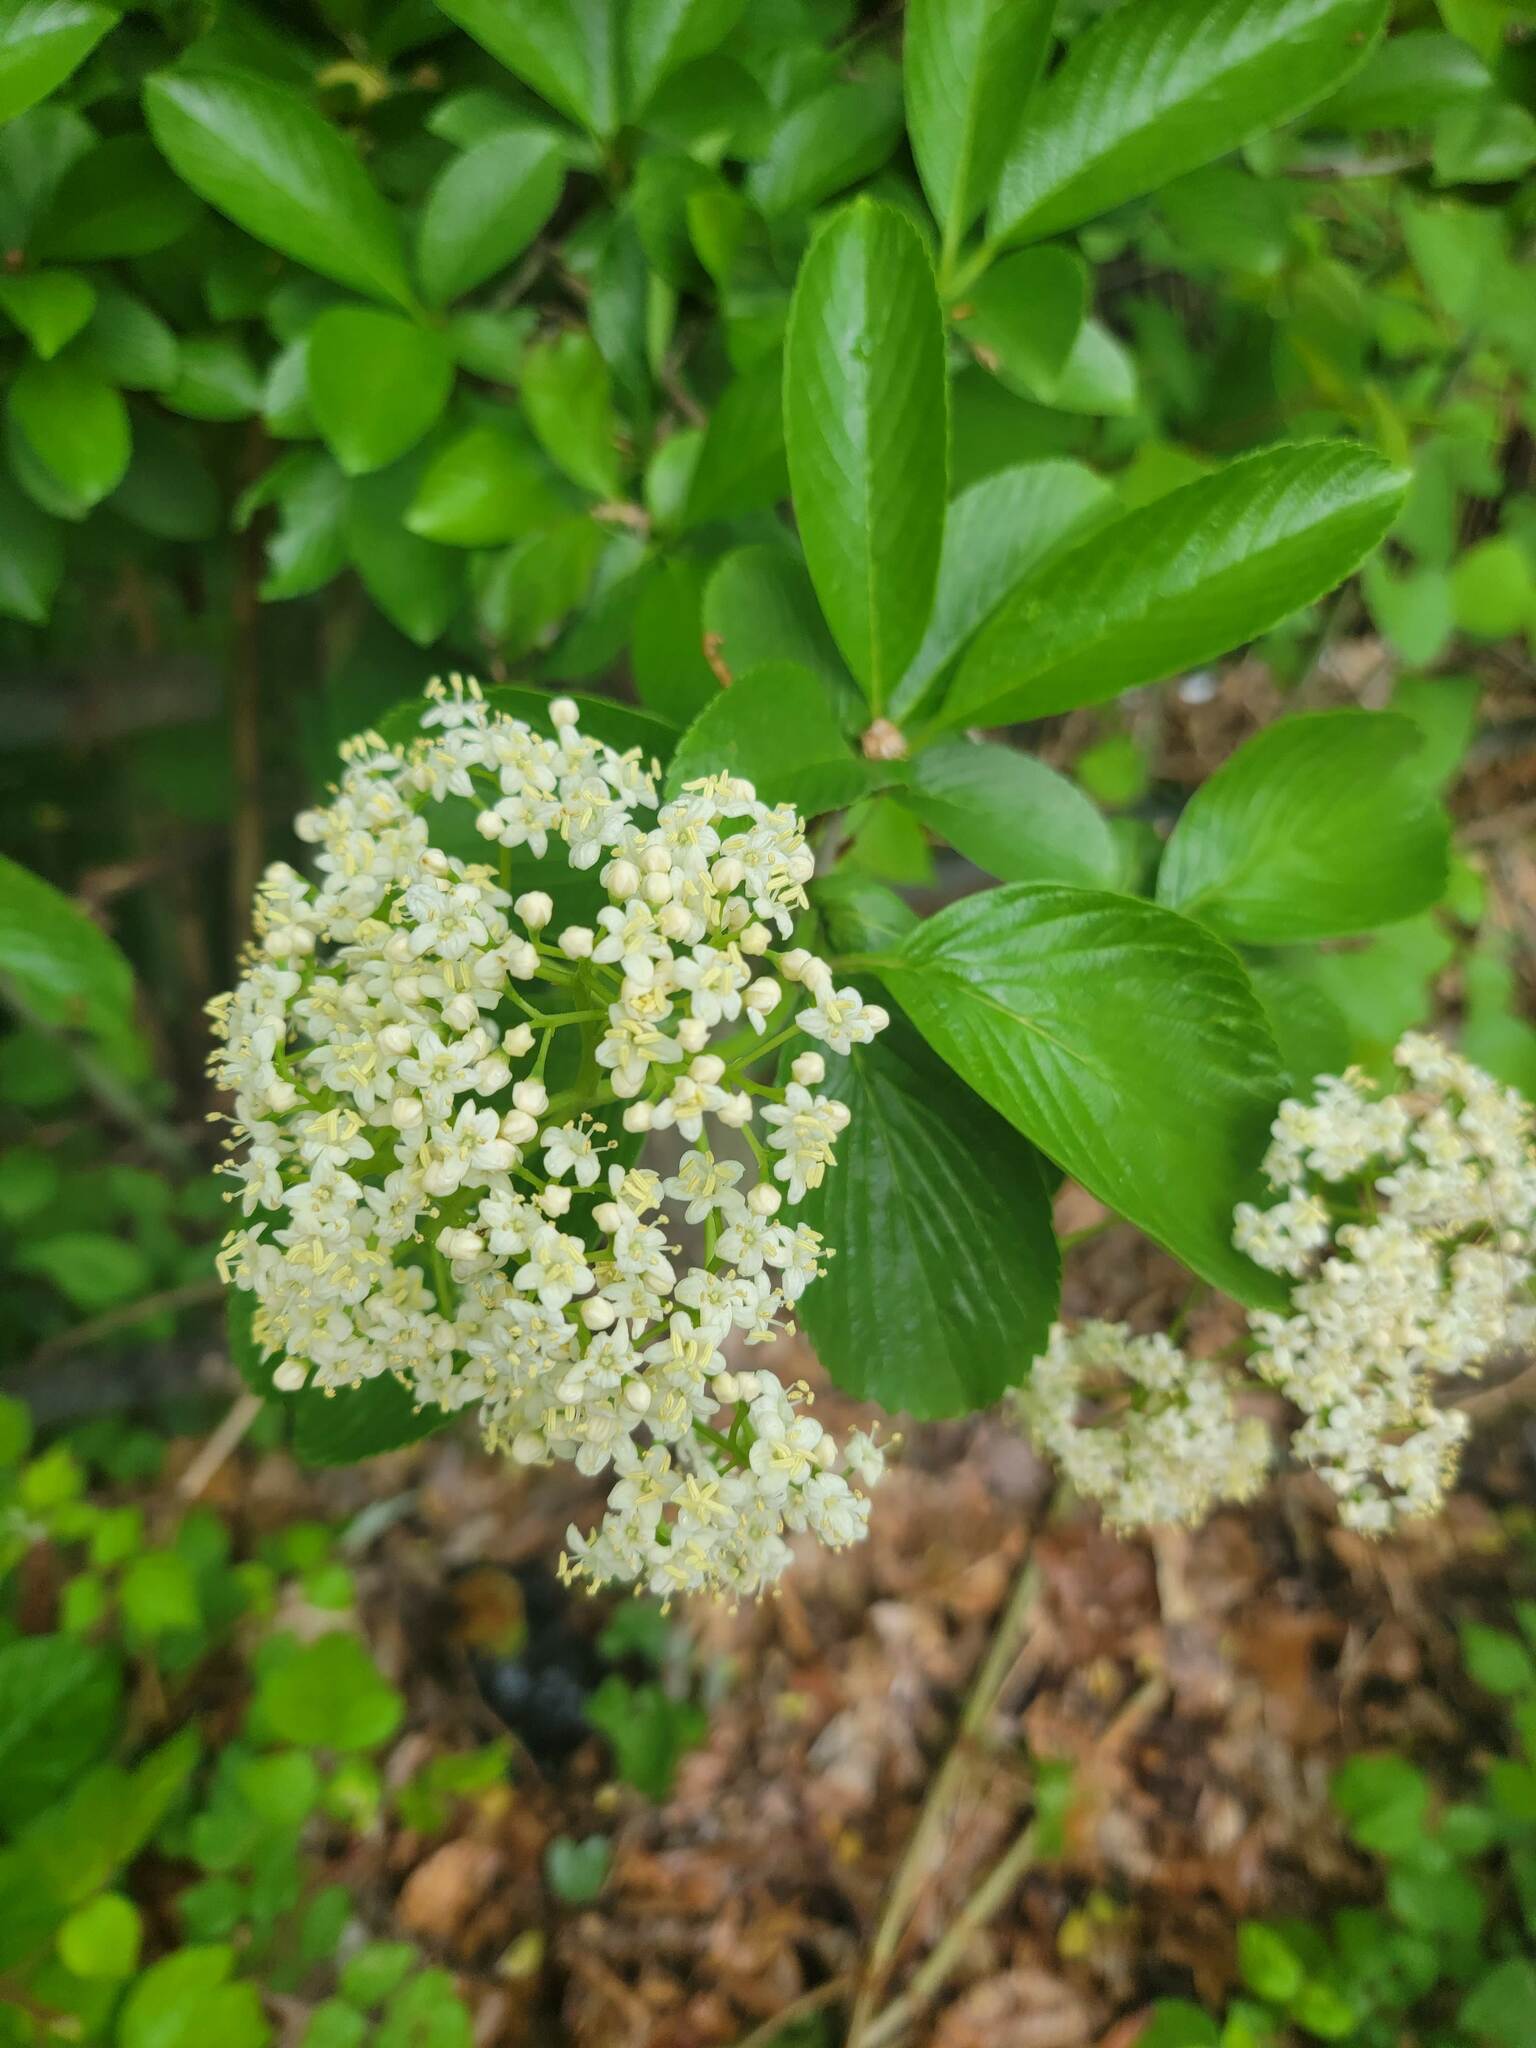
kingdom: Plantae
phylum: Tracheophyta
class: Magnoliopsida
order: Dipsacales
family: Viburnaceae
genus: Viburnum
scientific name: Viburnum sieboldii
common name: Siebold's arrowwood
